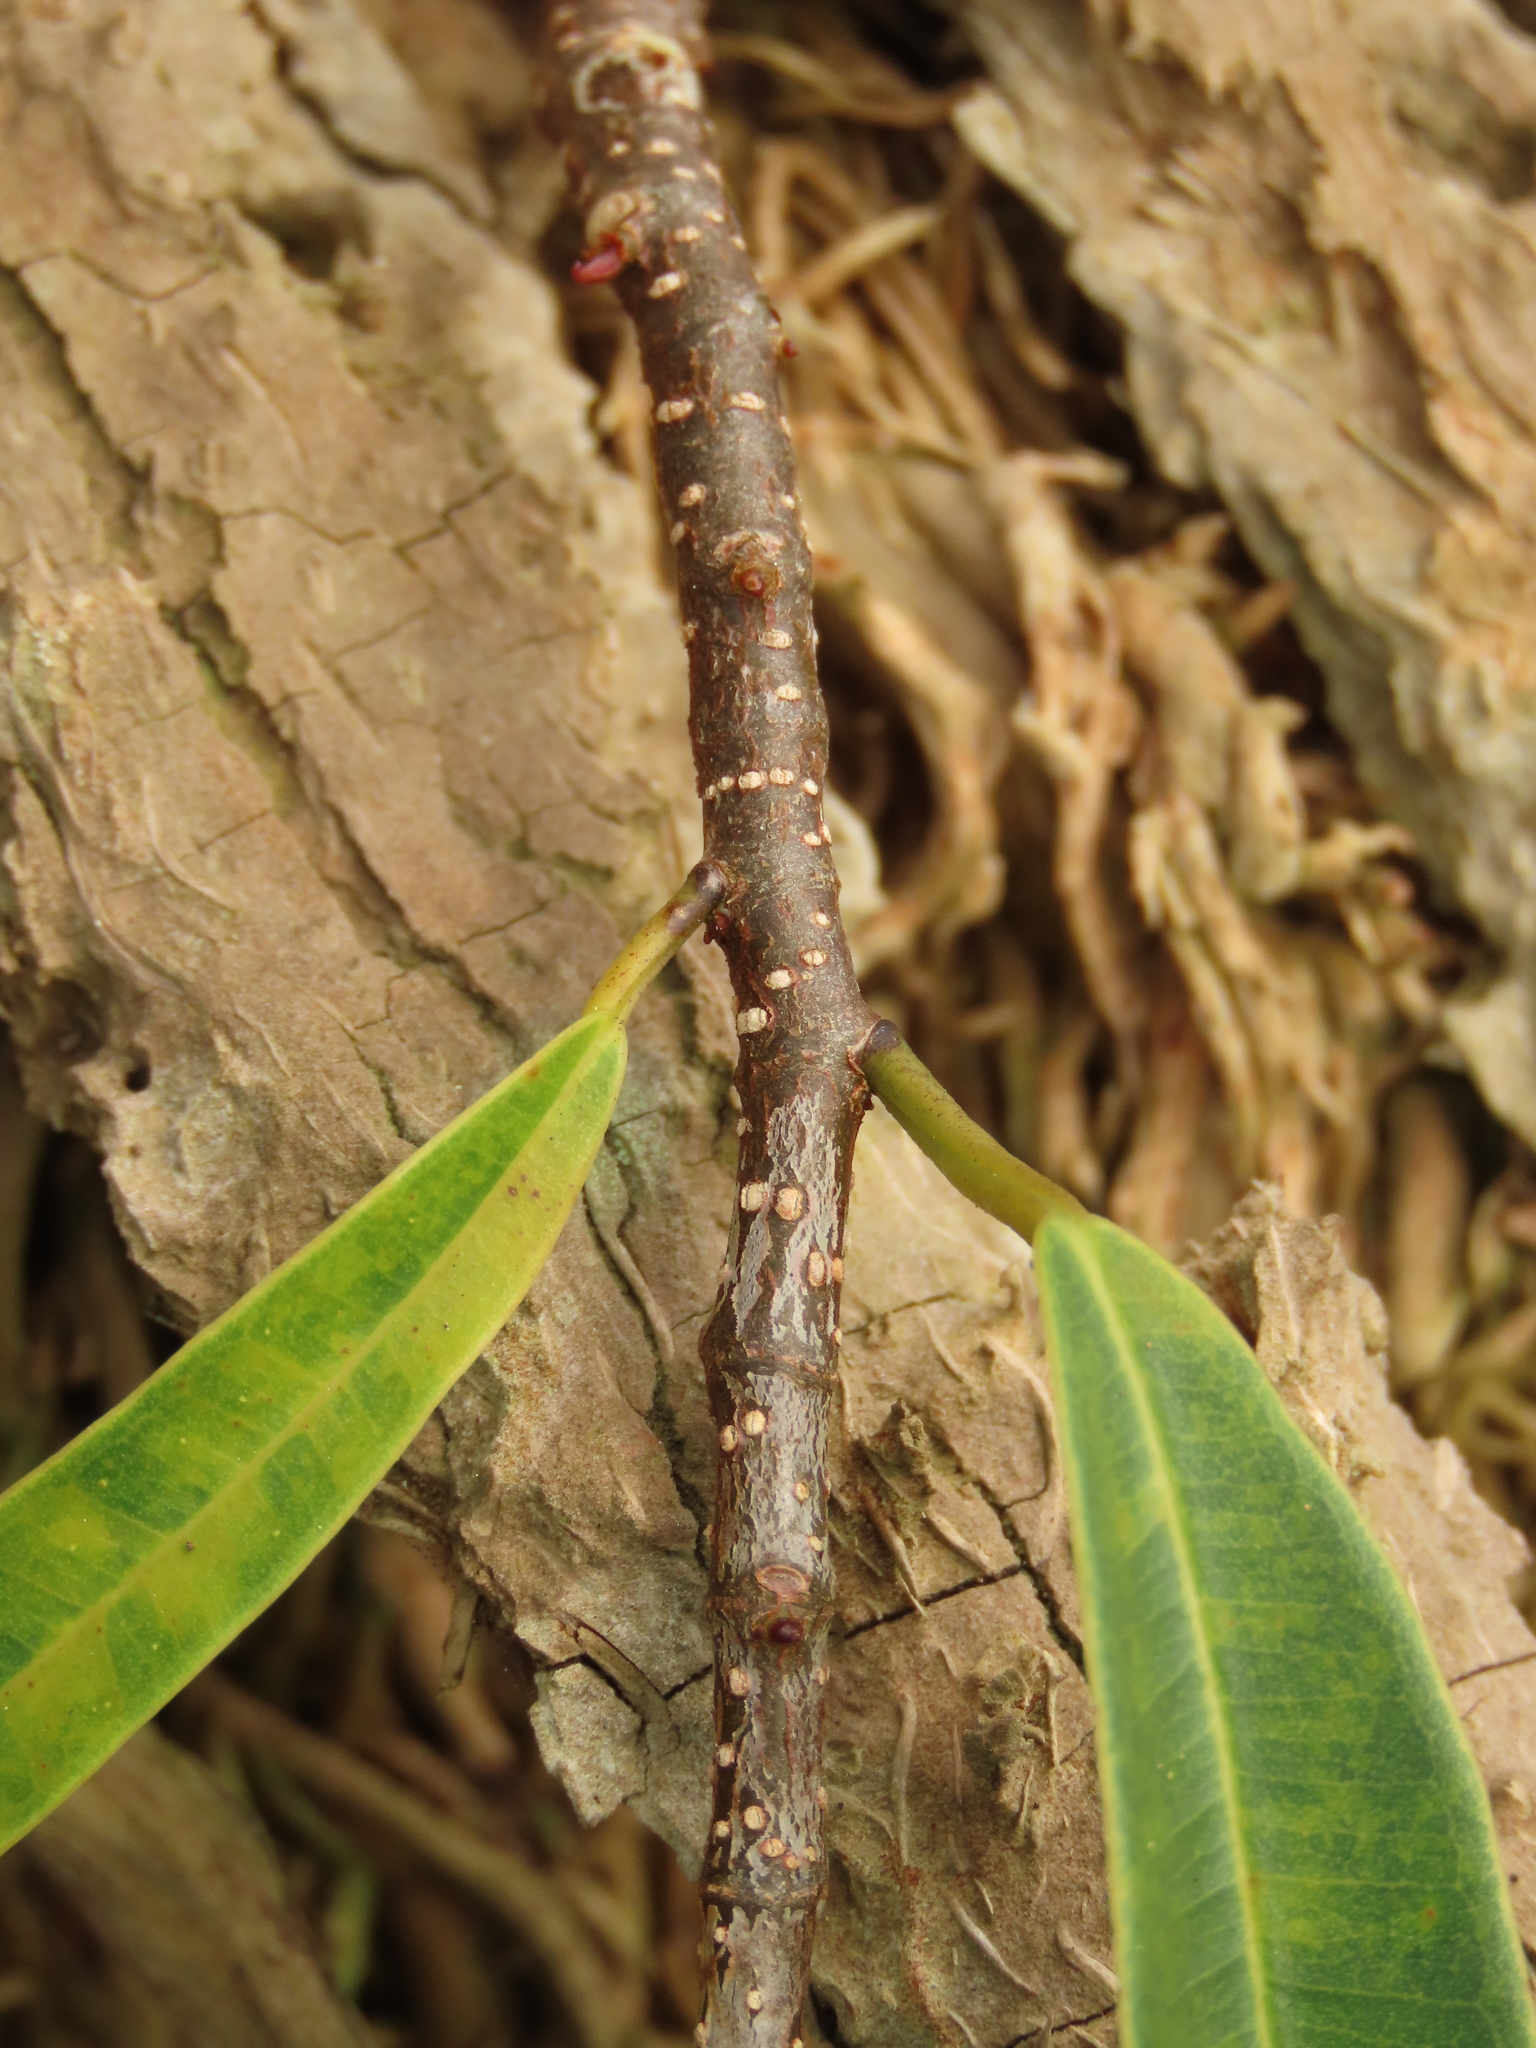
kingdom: Plantae
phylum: Tracheophyta
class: Magnoliopsida
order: Rosales
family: Moraceae
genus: Ficus
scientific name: Ficus maclellandii
